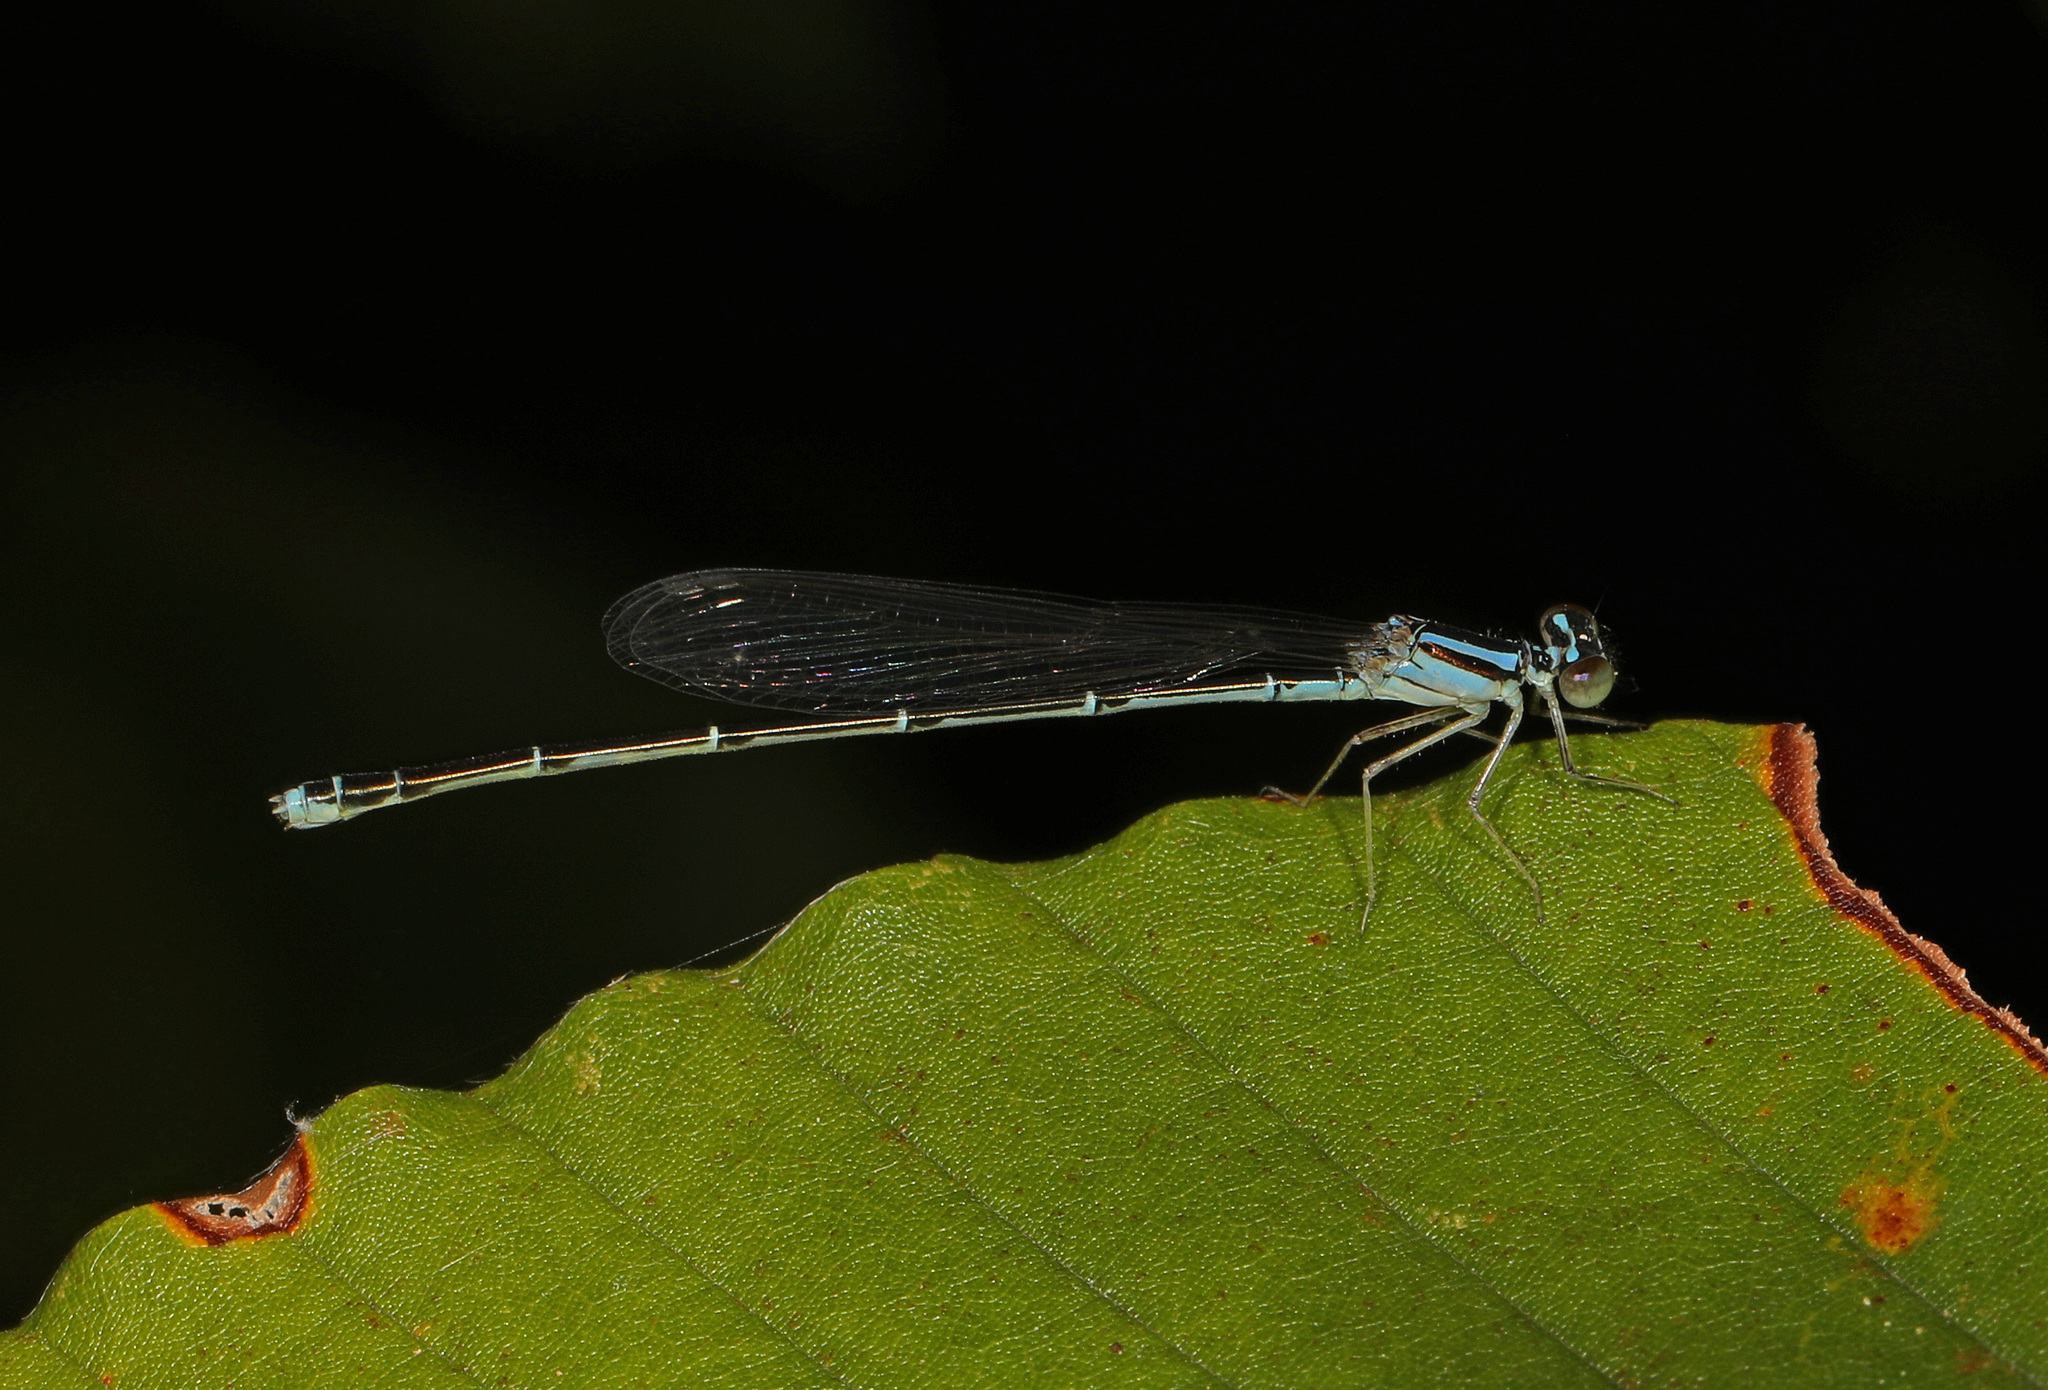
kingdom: Animalia
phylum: Arthropoda
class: Insecta
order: Odonata
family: Coenagrionidae
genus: Enallagma
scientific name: Enallagma signatum
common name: Orange bluet
